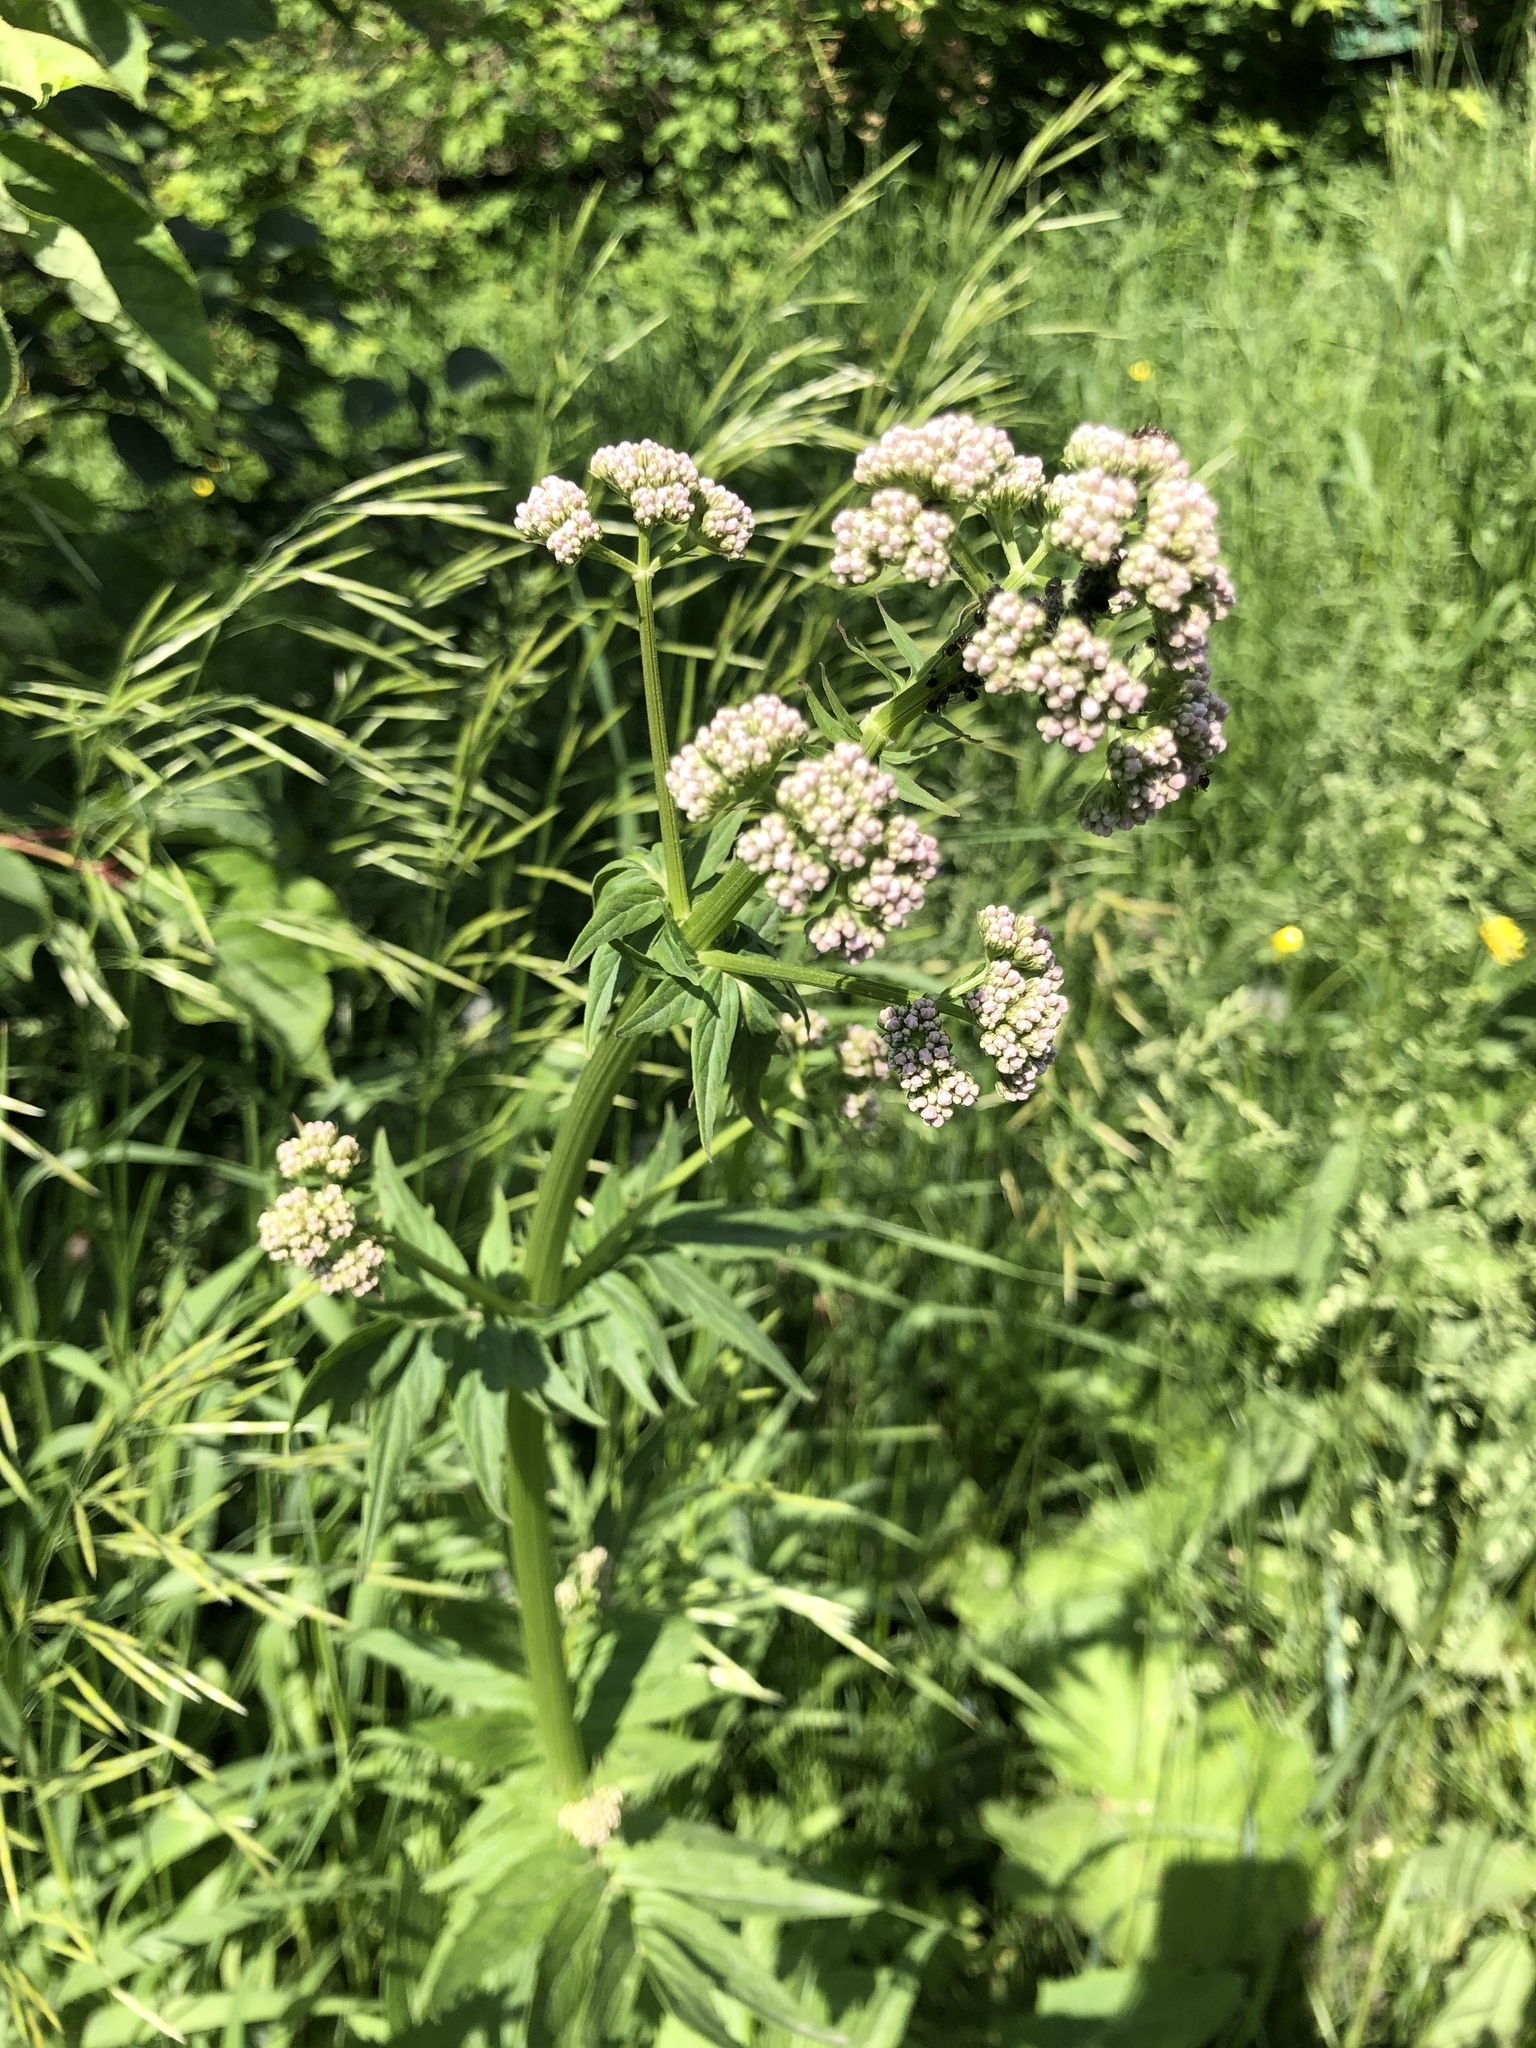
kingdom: Plantae
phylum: Tracheophyta
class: Magnoliopsida
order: Dipsacales
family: Caprifoliaceae
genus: Valeriana
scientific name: Valeriana officinalis
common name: Common valerian
